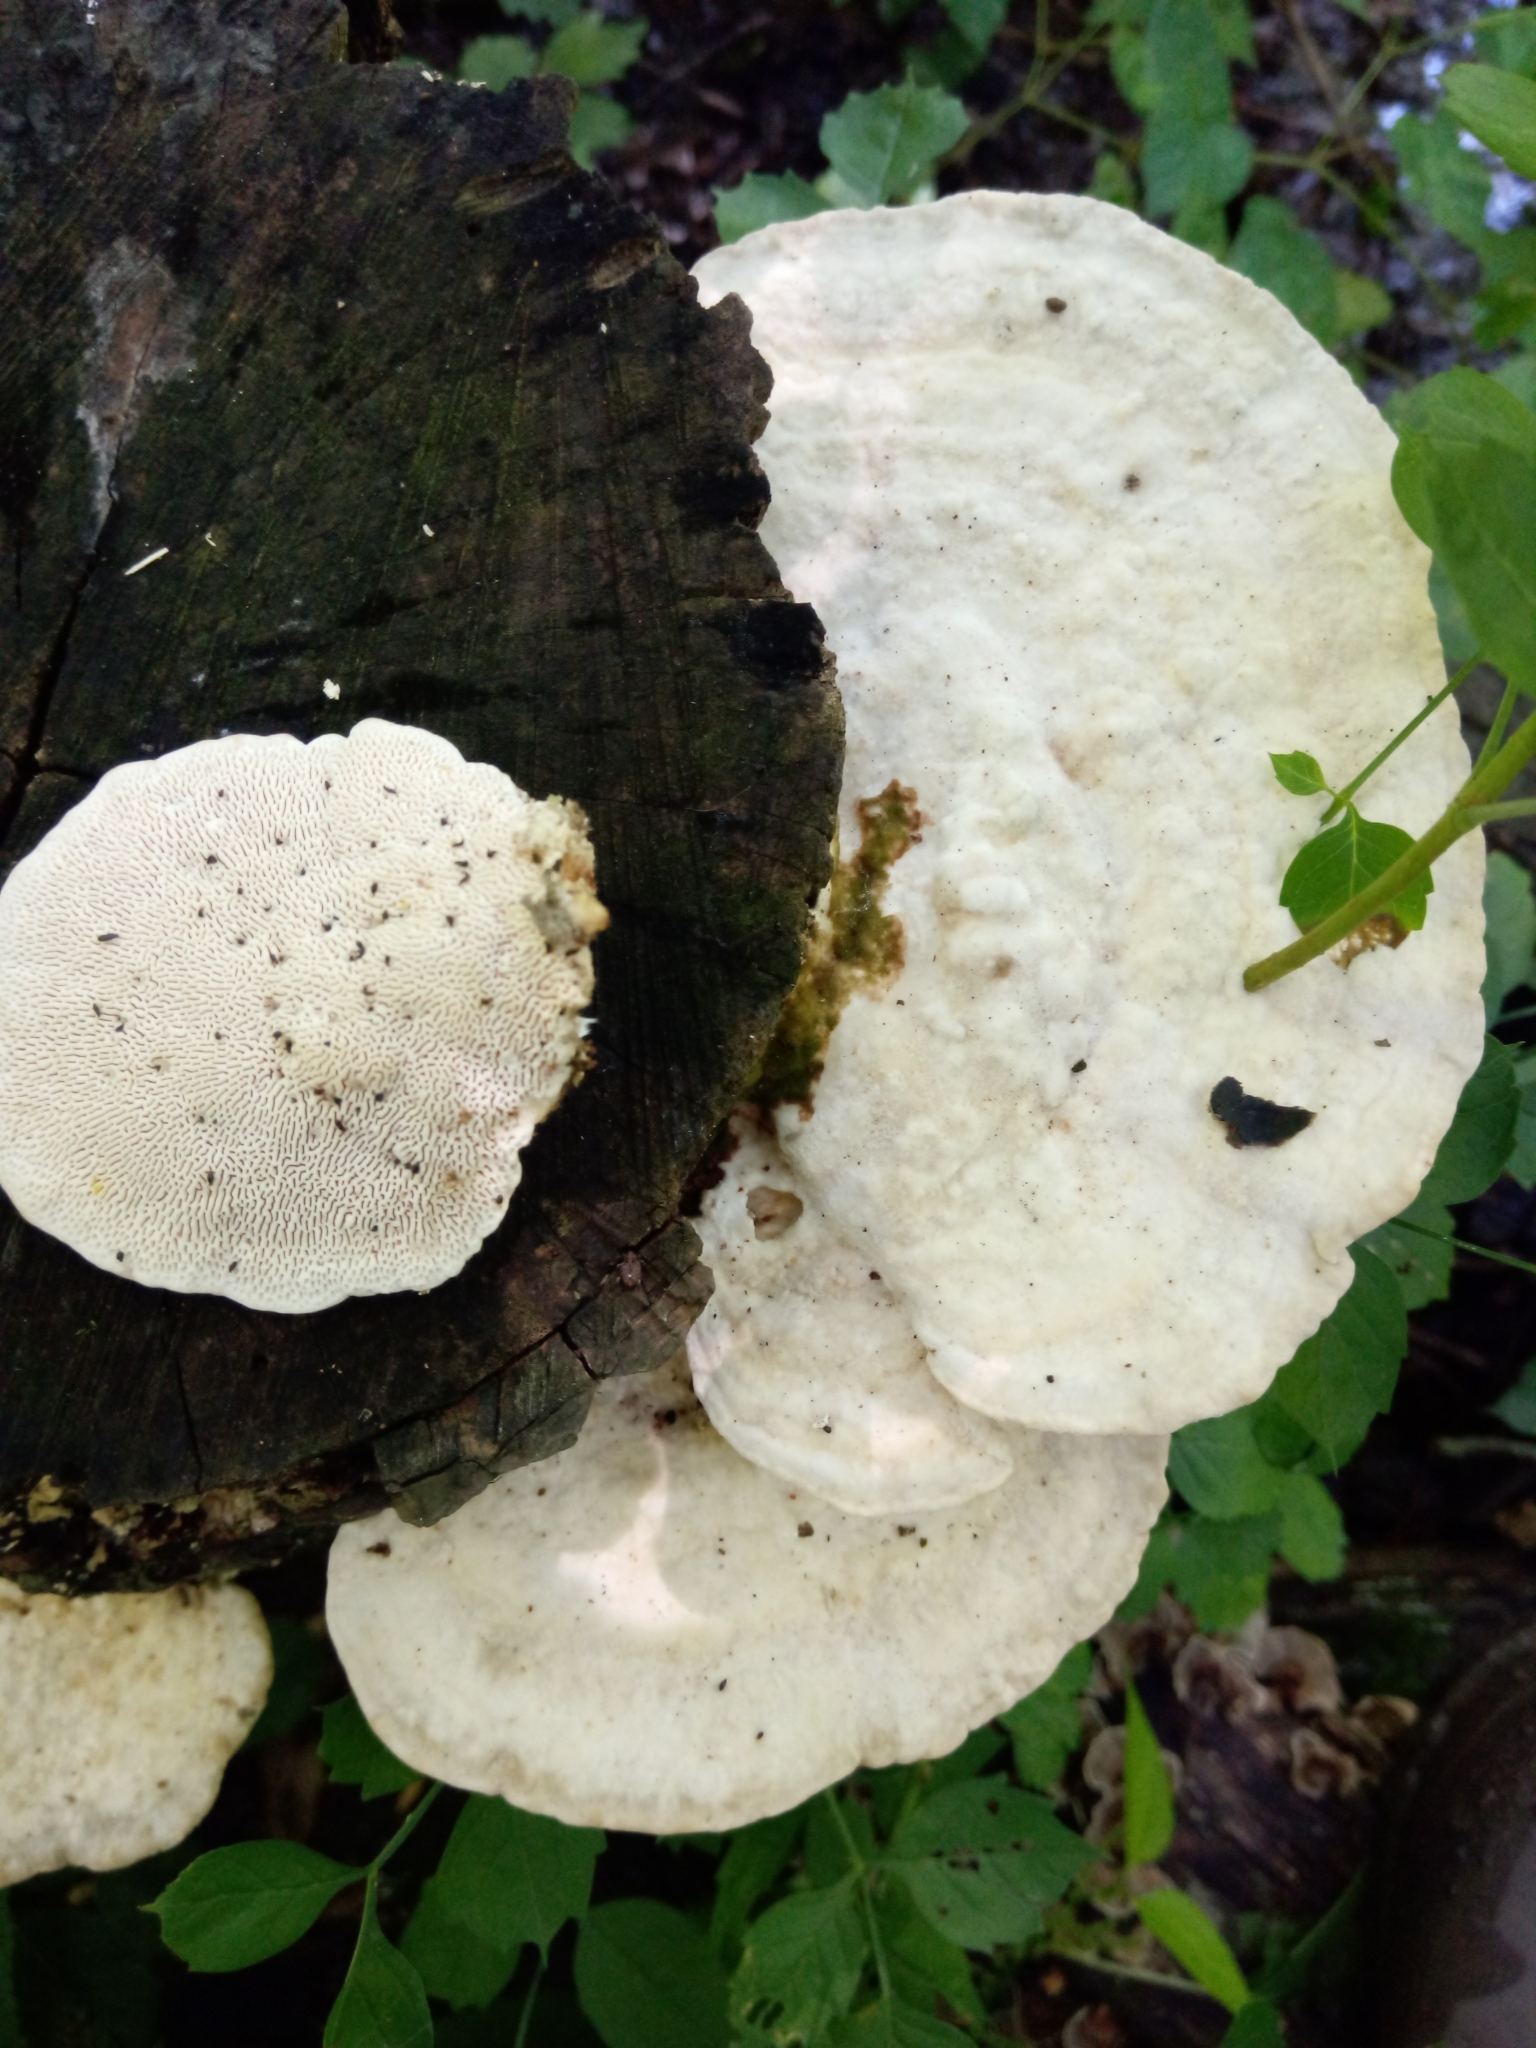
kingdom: Fungi
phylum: Basidiomycota
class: Agaricomycetes
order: Polyporales
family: Polyporaceae
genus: Trametes
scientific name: Trametes gibbosa
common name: Lumpy bracket
